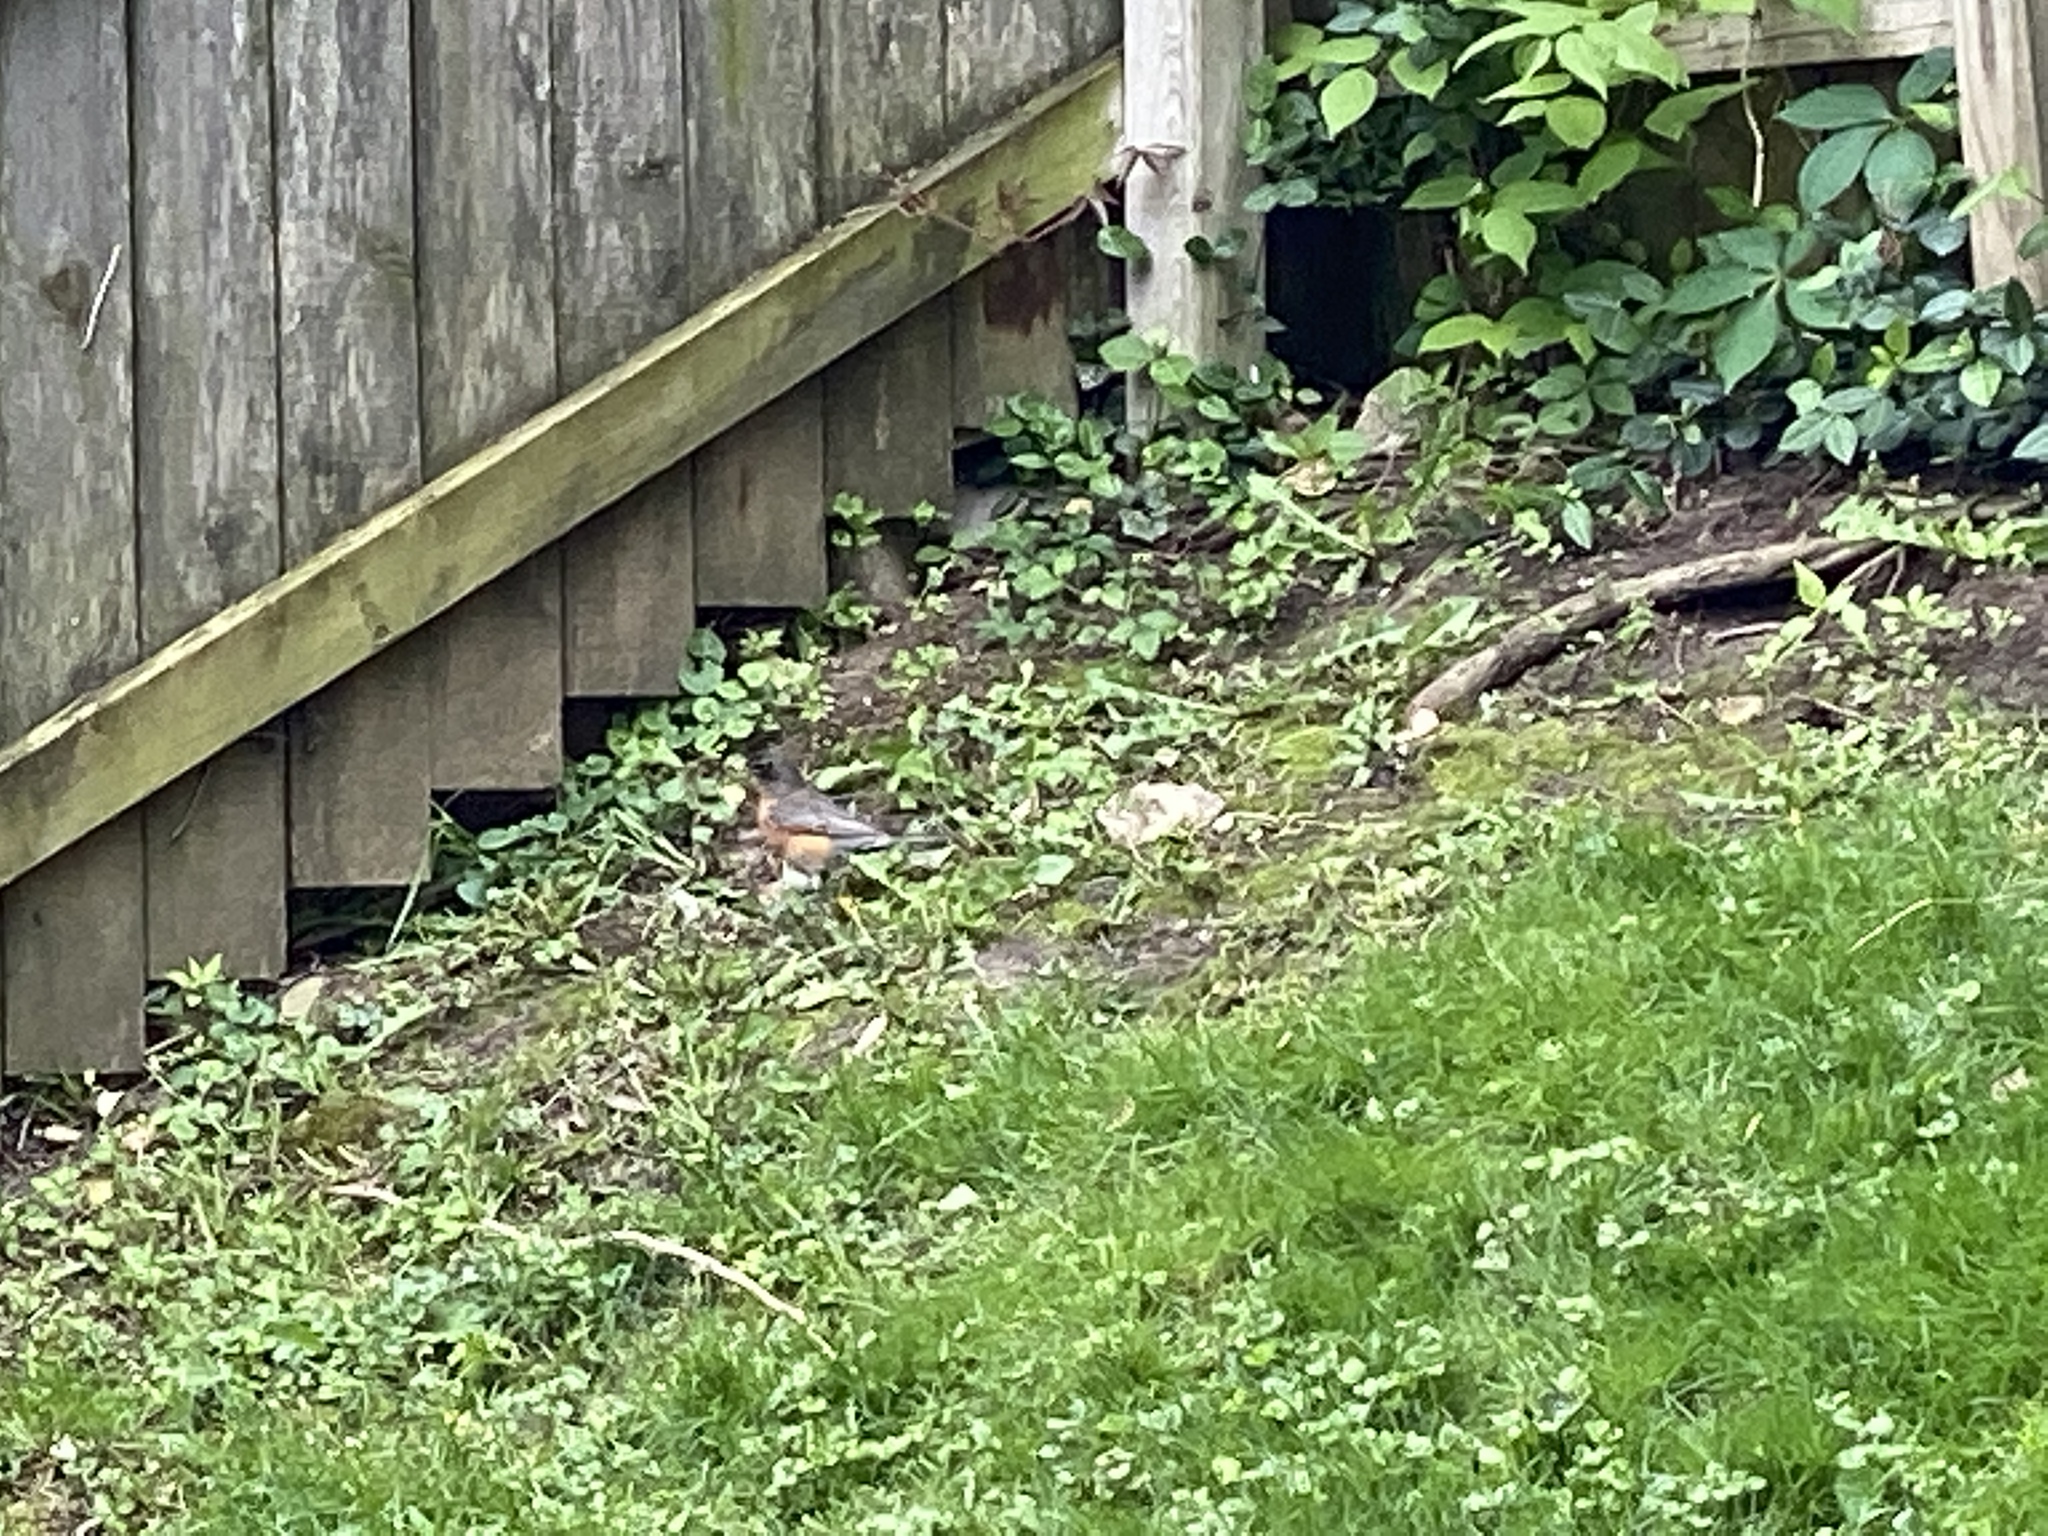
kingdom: Animalia
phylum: Chordata
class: Aves
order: Passeriformes
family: Turdidae
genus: Turdus
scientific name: Turdus migratorius
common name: American robin
